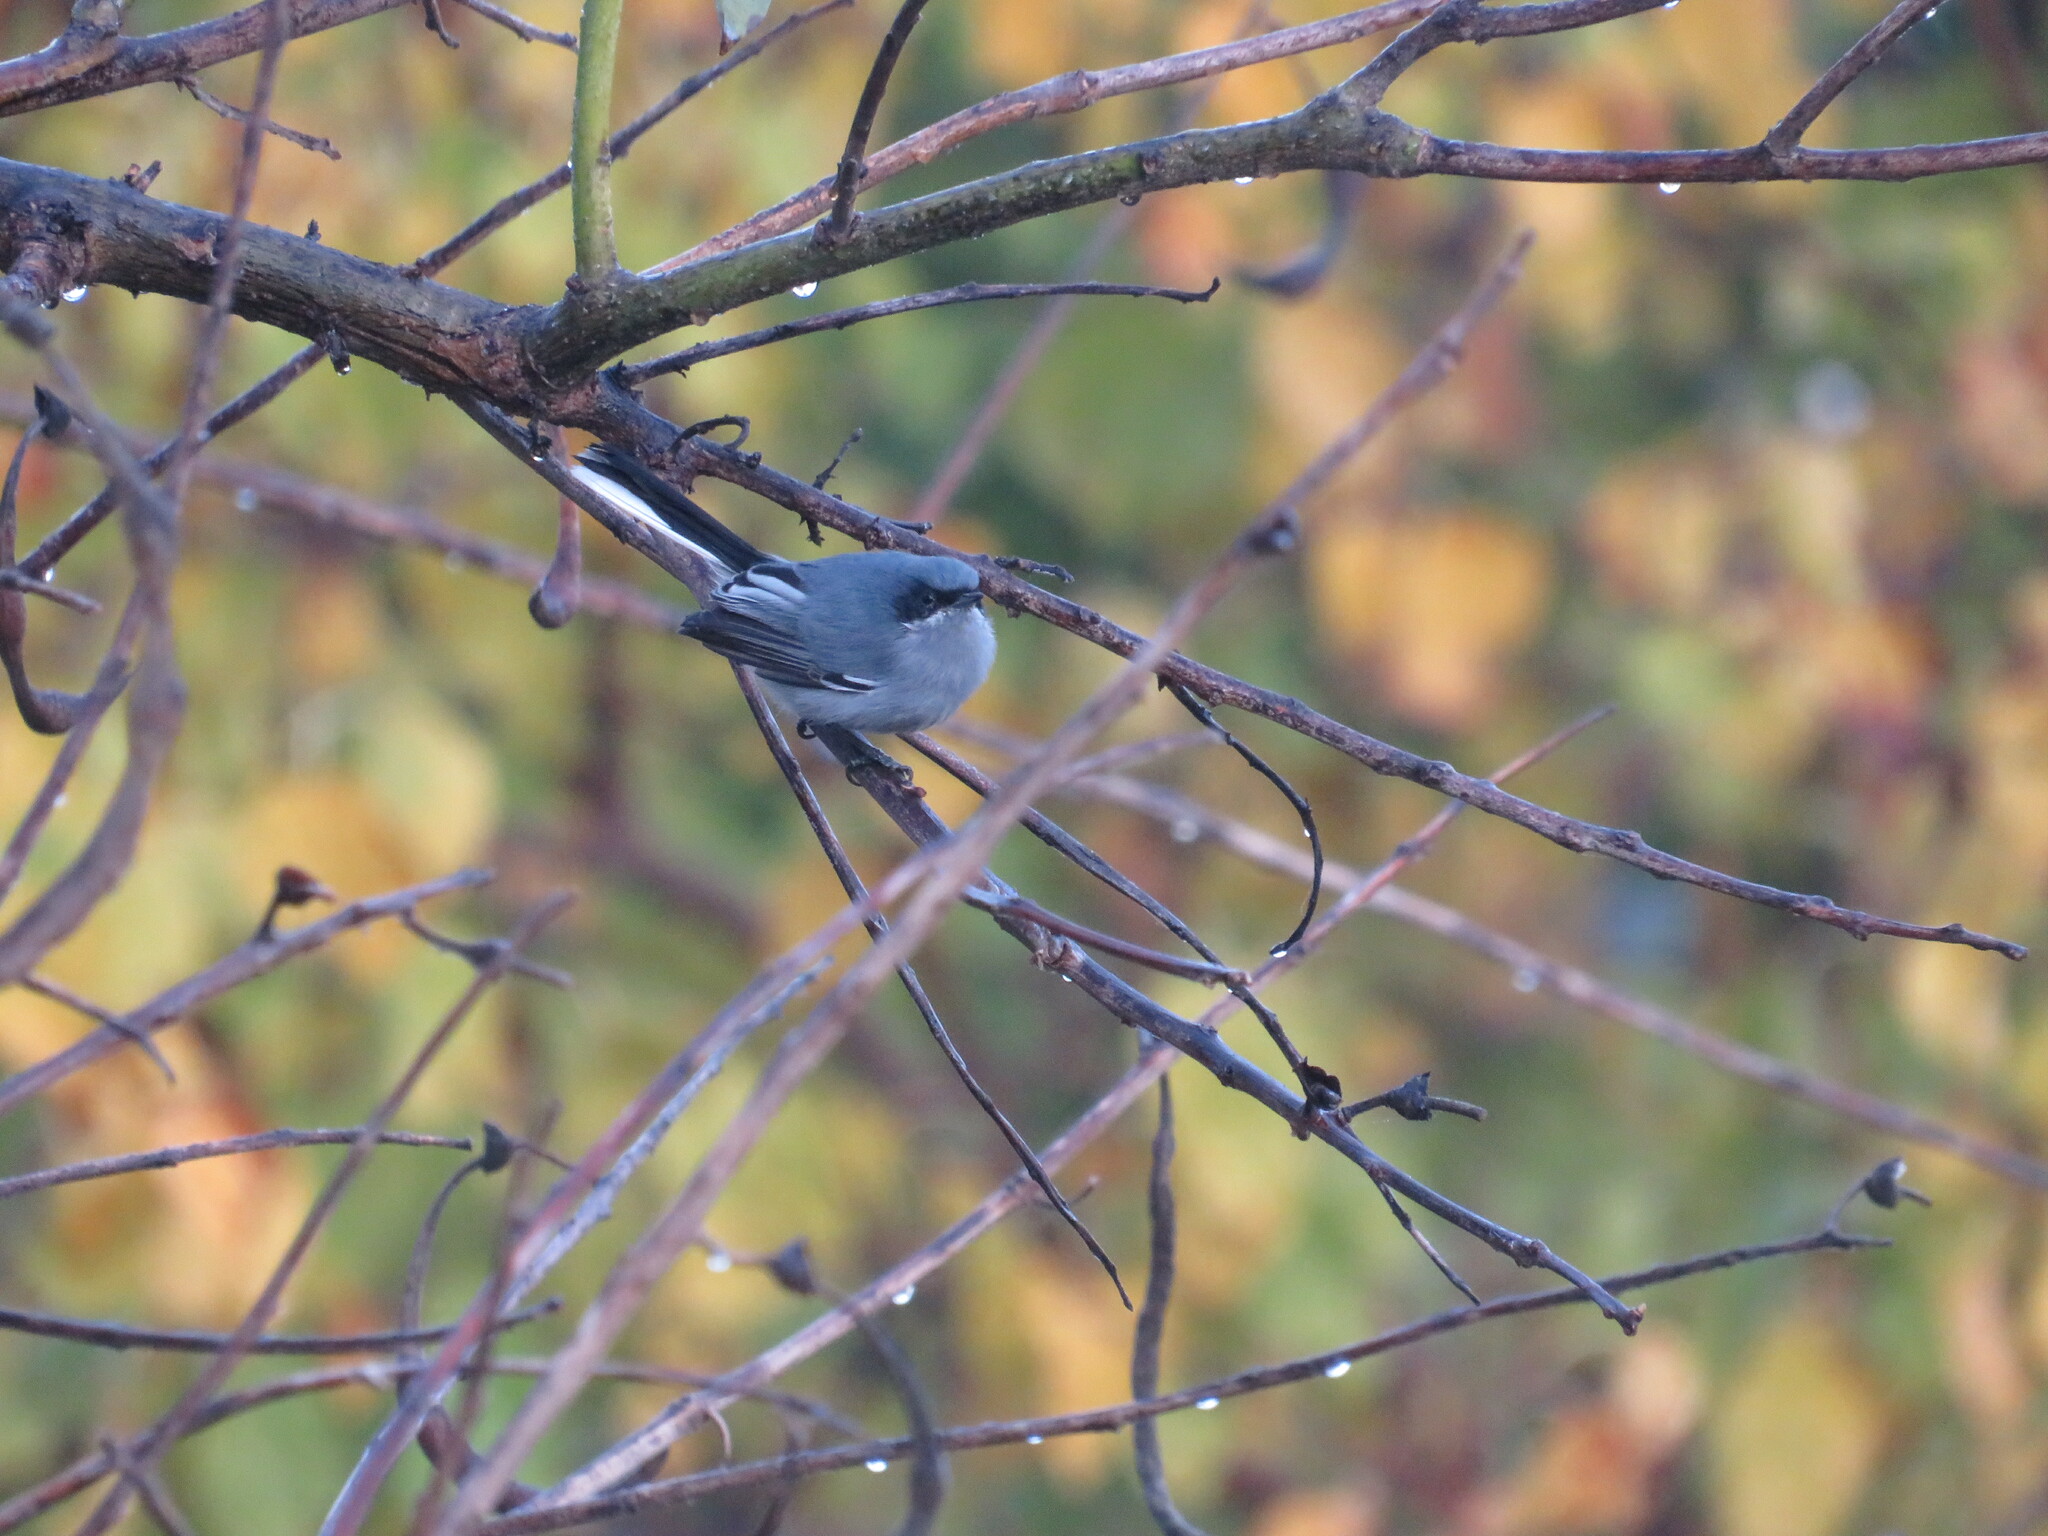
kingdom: Animalia
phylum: Chordata
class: Aves
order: Passeriformes
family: Polioptilidae
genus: Polioptila
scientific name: Polioptila dumicola
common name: Masked gnatcatcher
